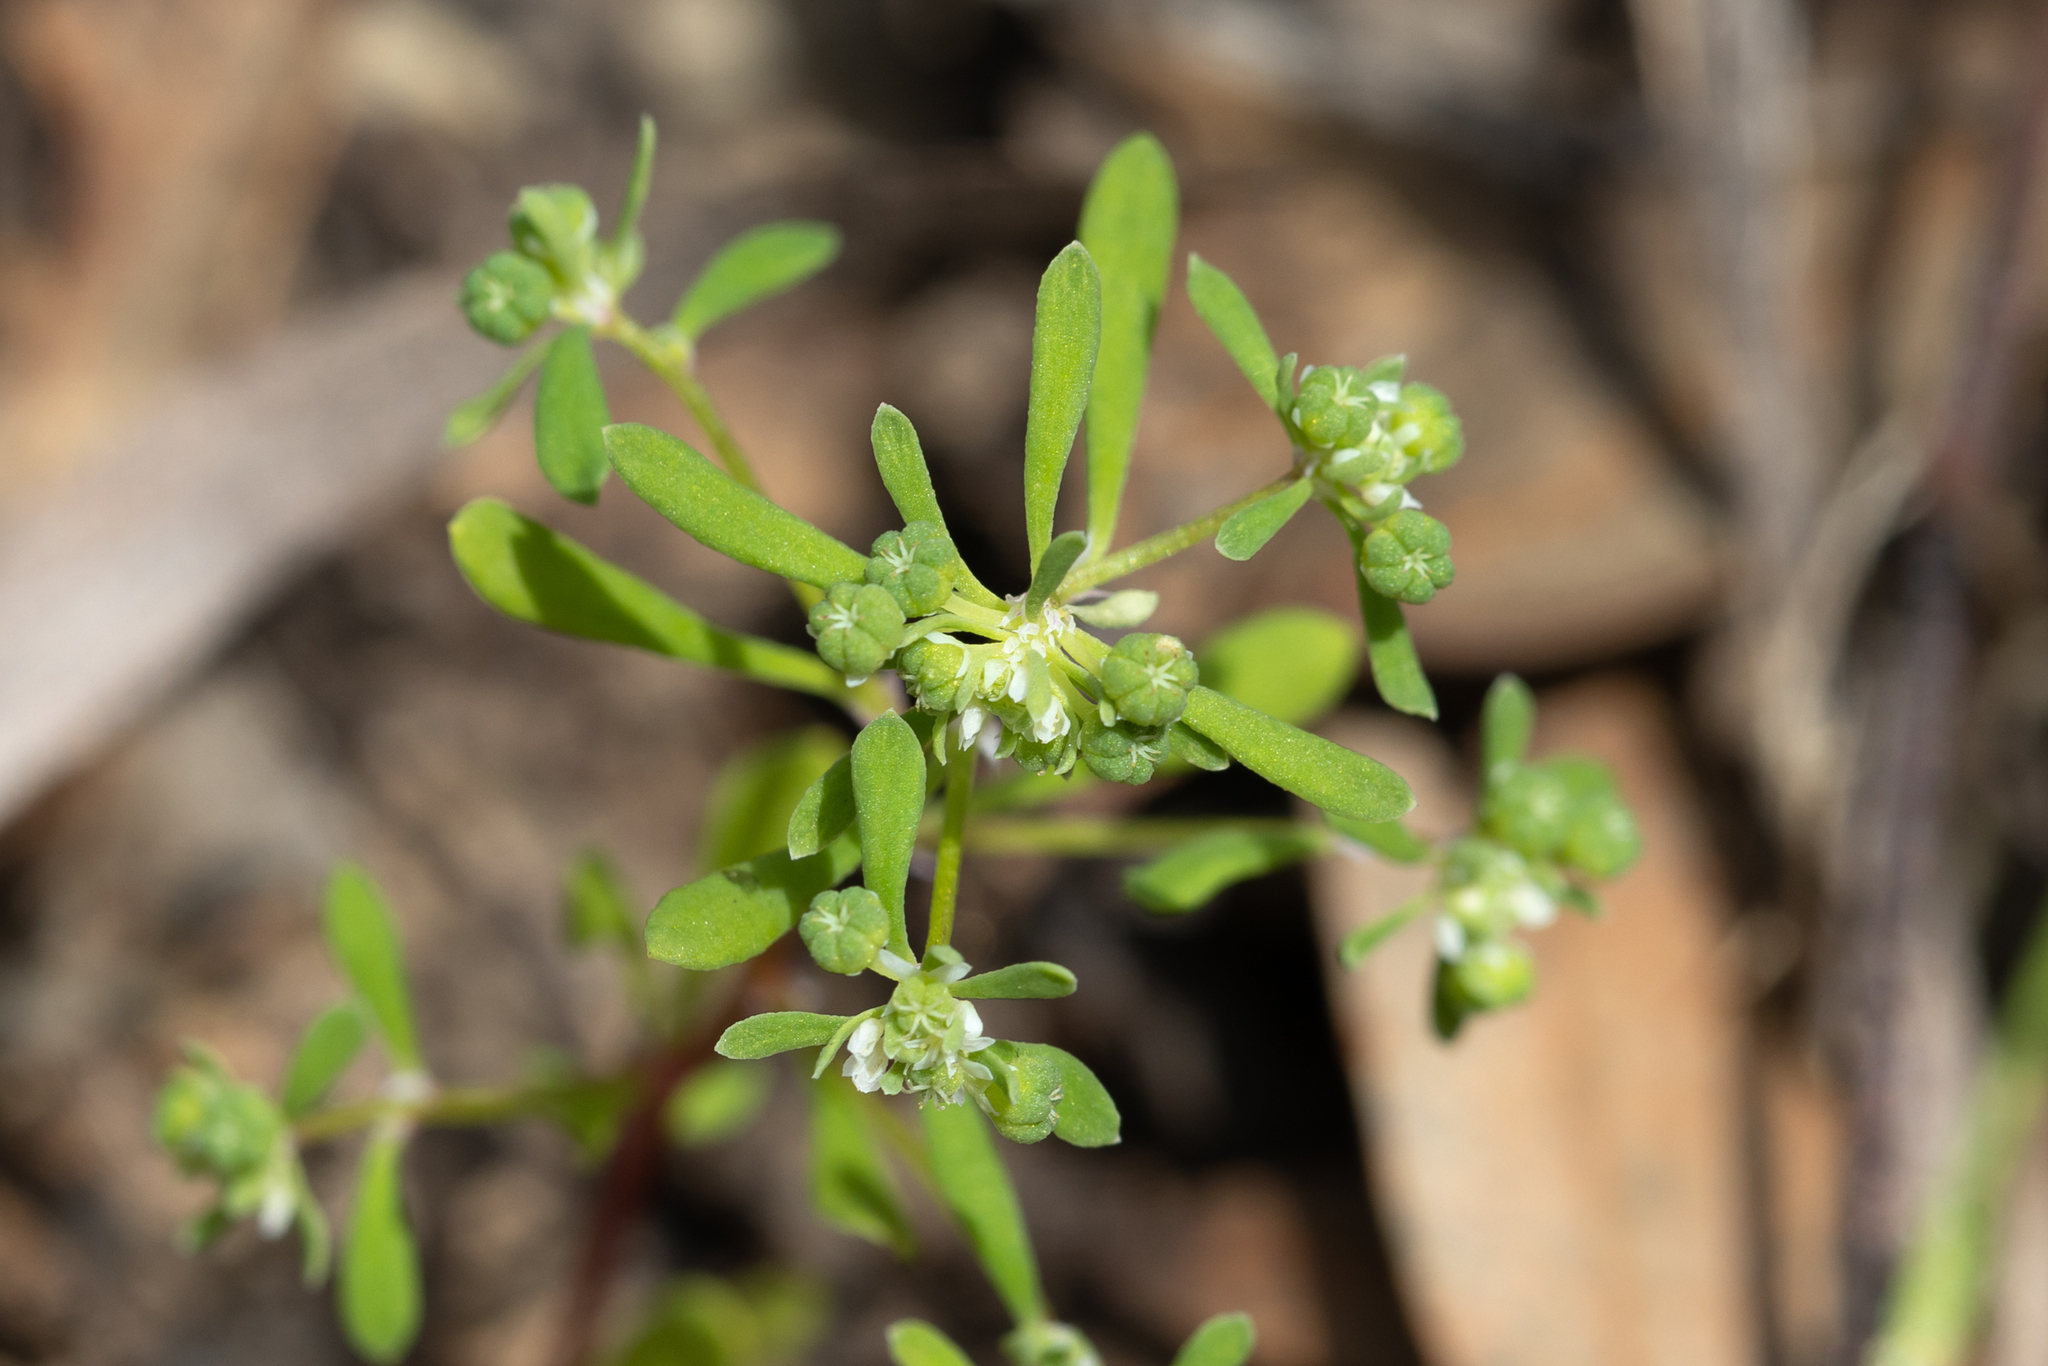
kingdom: Plantae
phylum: Tracheophyta
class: Magnoliopsida
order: Malpighiales
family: Phyllanthaceae
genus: Poranthera
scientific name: Poranthera microphylla
